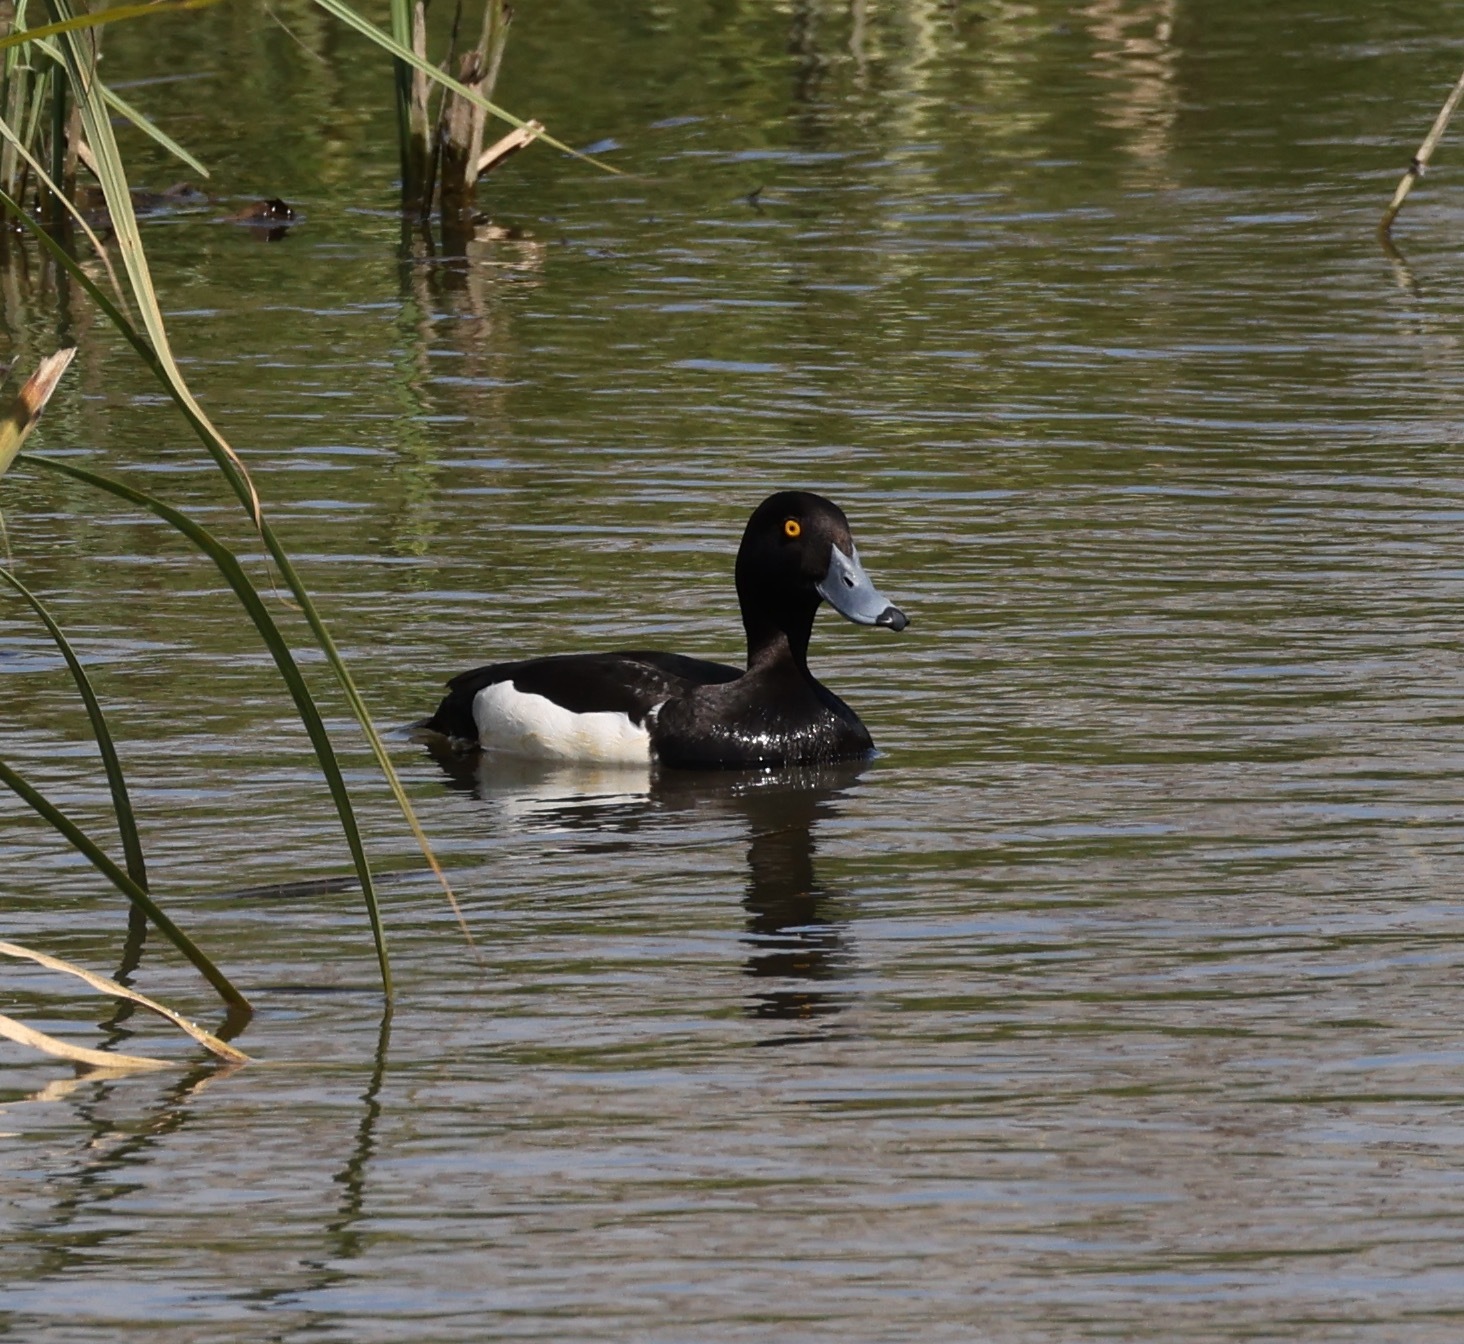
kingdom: Animalia
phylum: Chordata
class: Aves
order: Anseriformes
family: Anatidae
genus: Aythya
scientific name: Aythya fuligula
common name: Tufted duck
